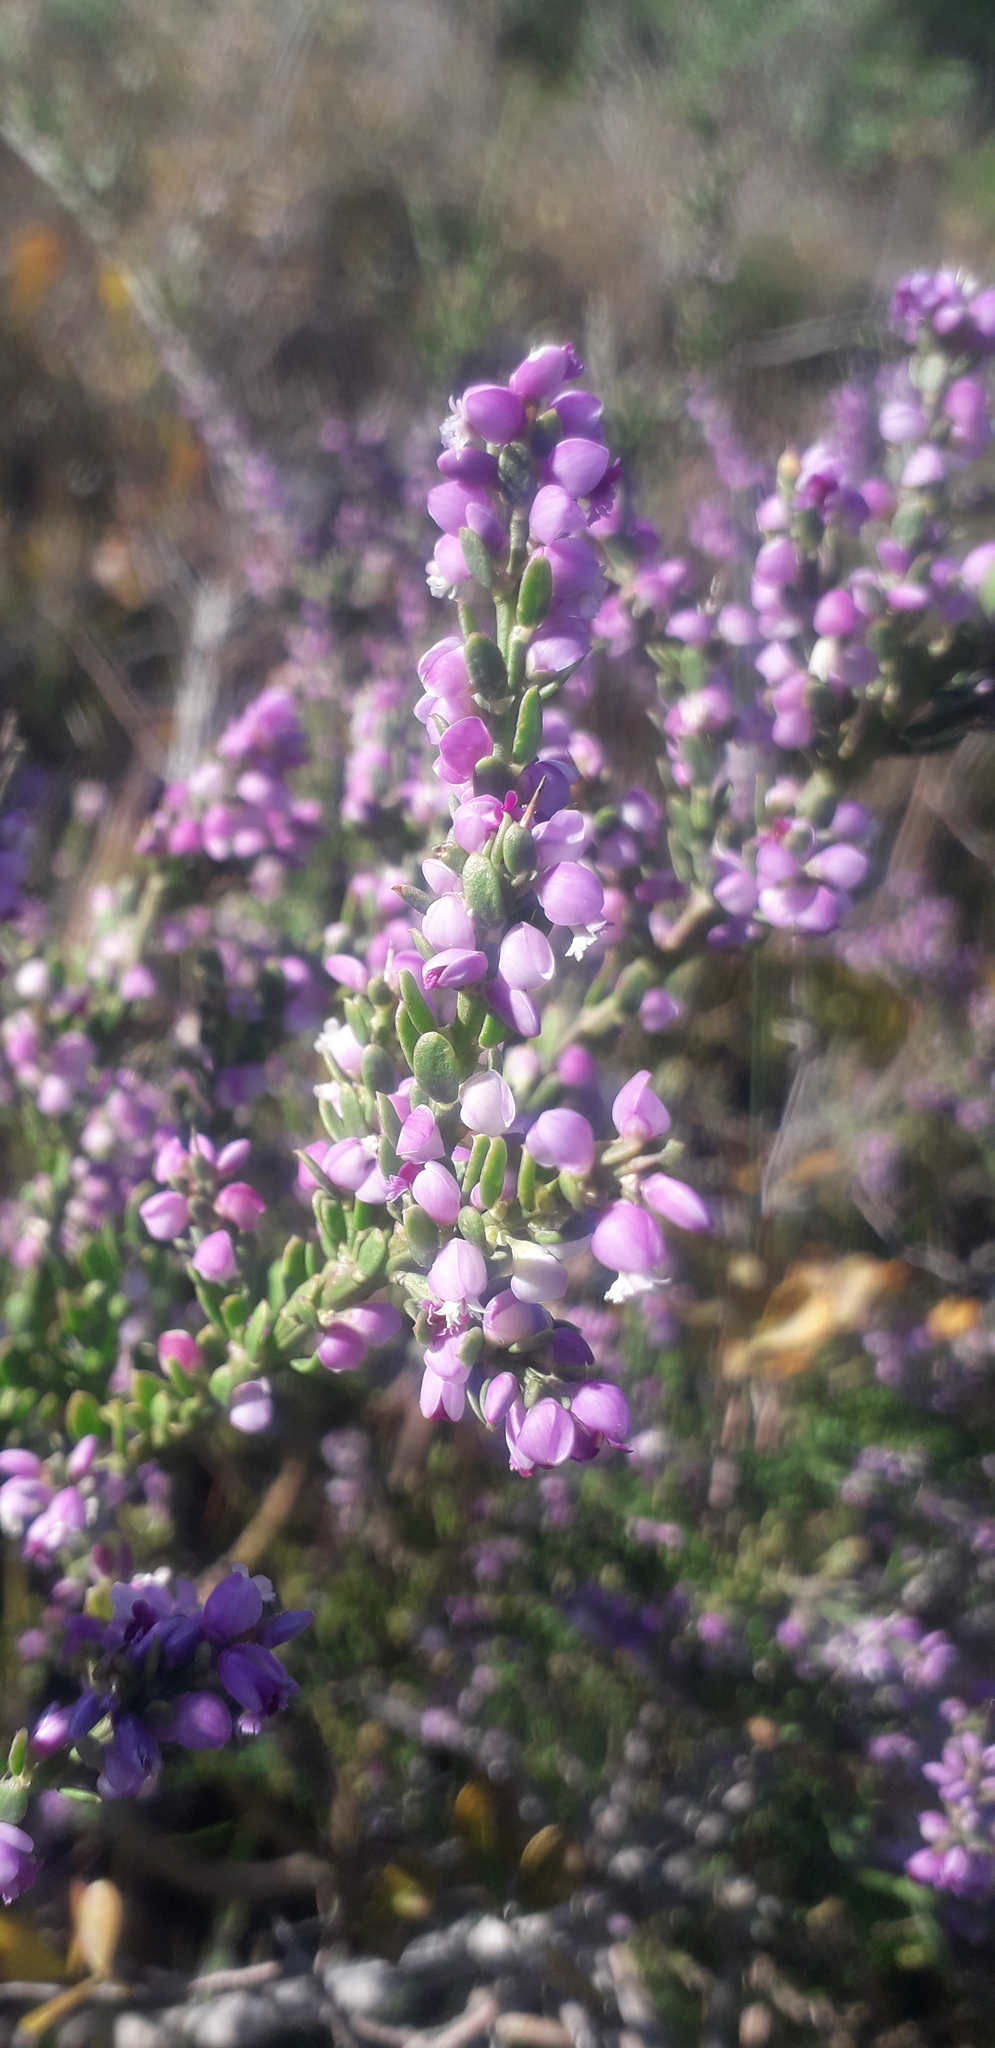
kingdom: Plantae
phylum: Tracheophyta
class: Magnoliopsida
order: Fabales
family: Polygalaceae
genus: Muraltia
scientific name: Muraltia spinosa
